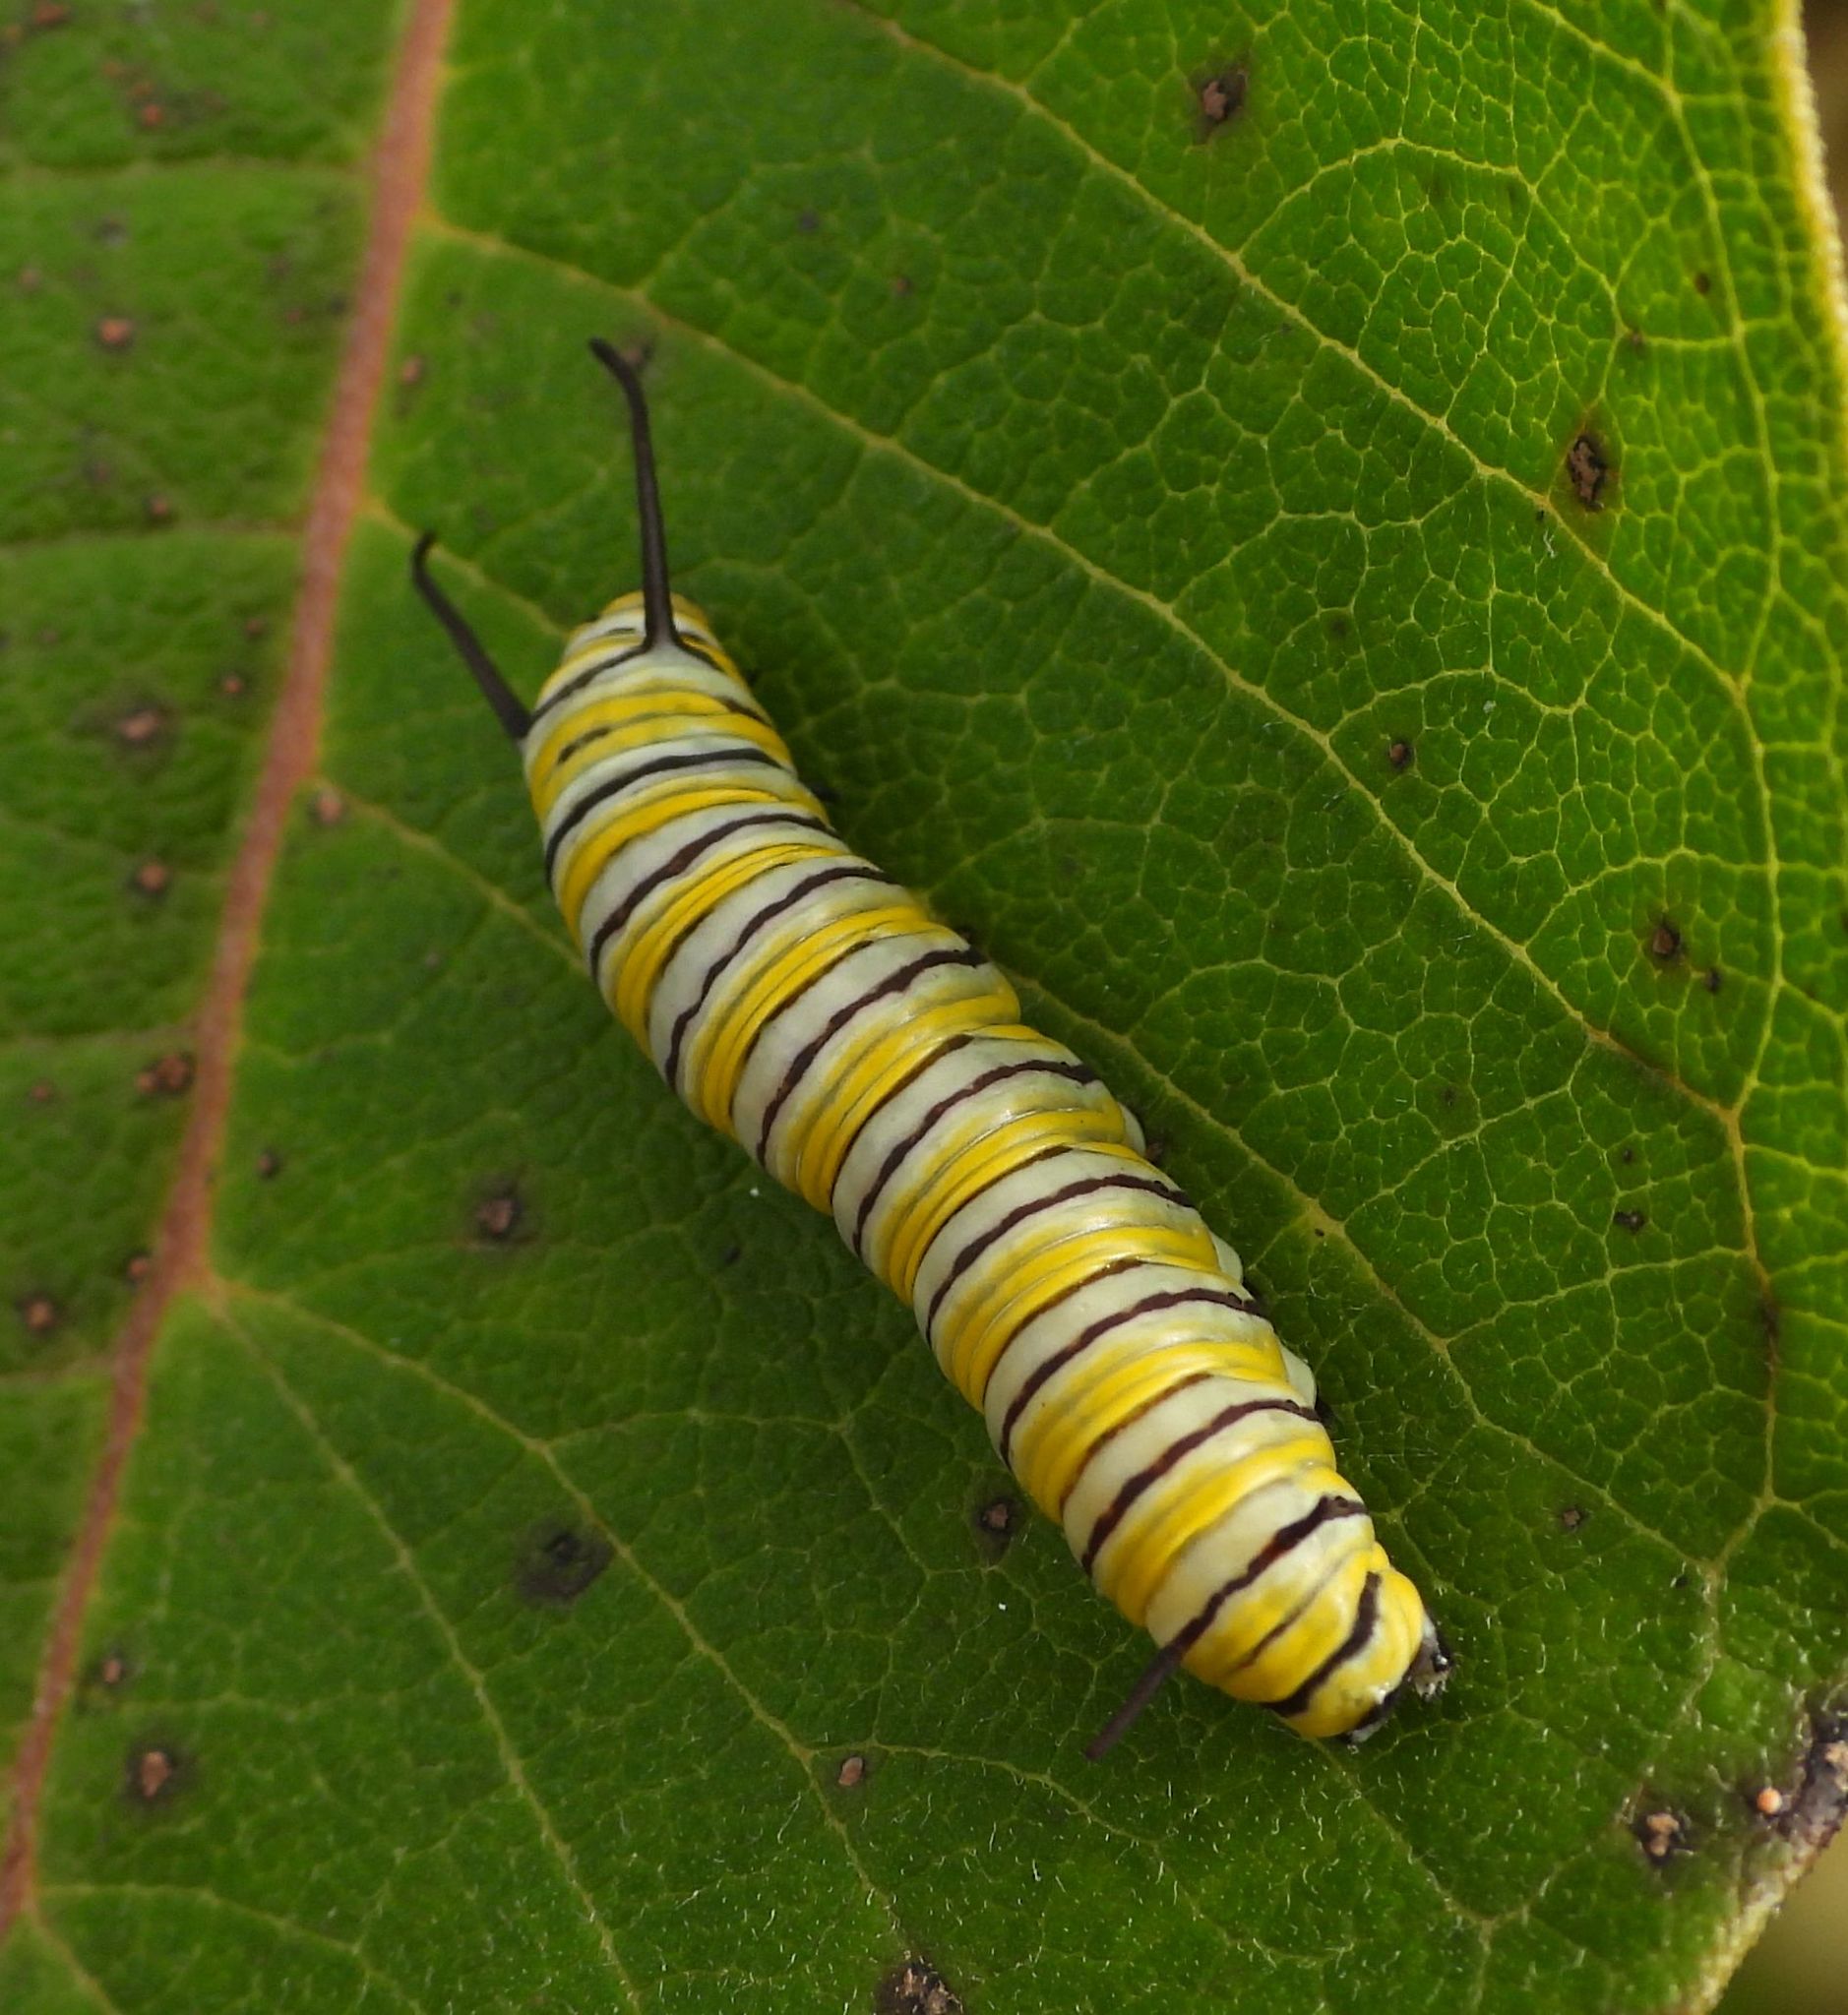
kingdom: Animalia
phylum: Arthropoda
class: Insecta
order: Lepidoptera
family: Nymphalidae
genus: Danaus
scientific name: Danaus plexippus
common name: Monarch
